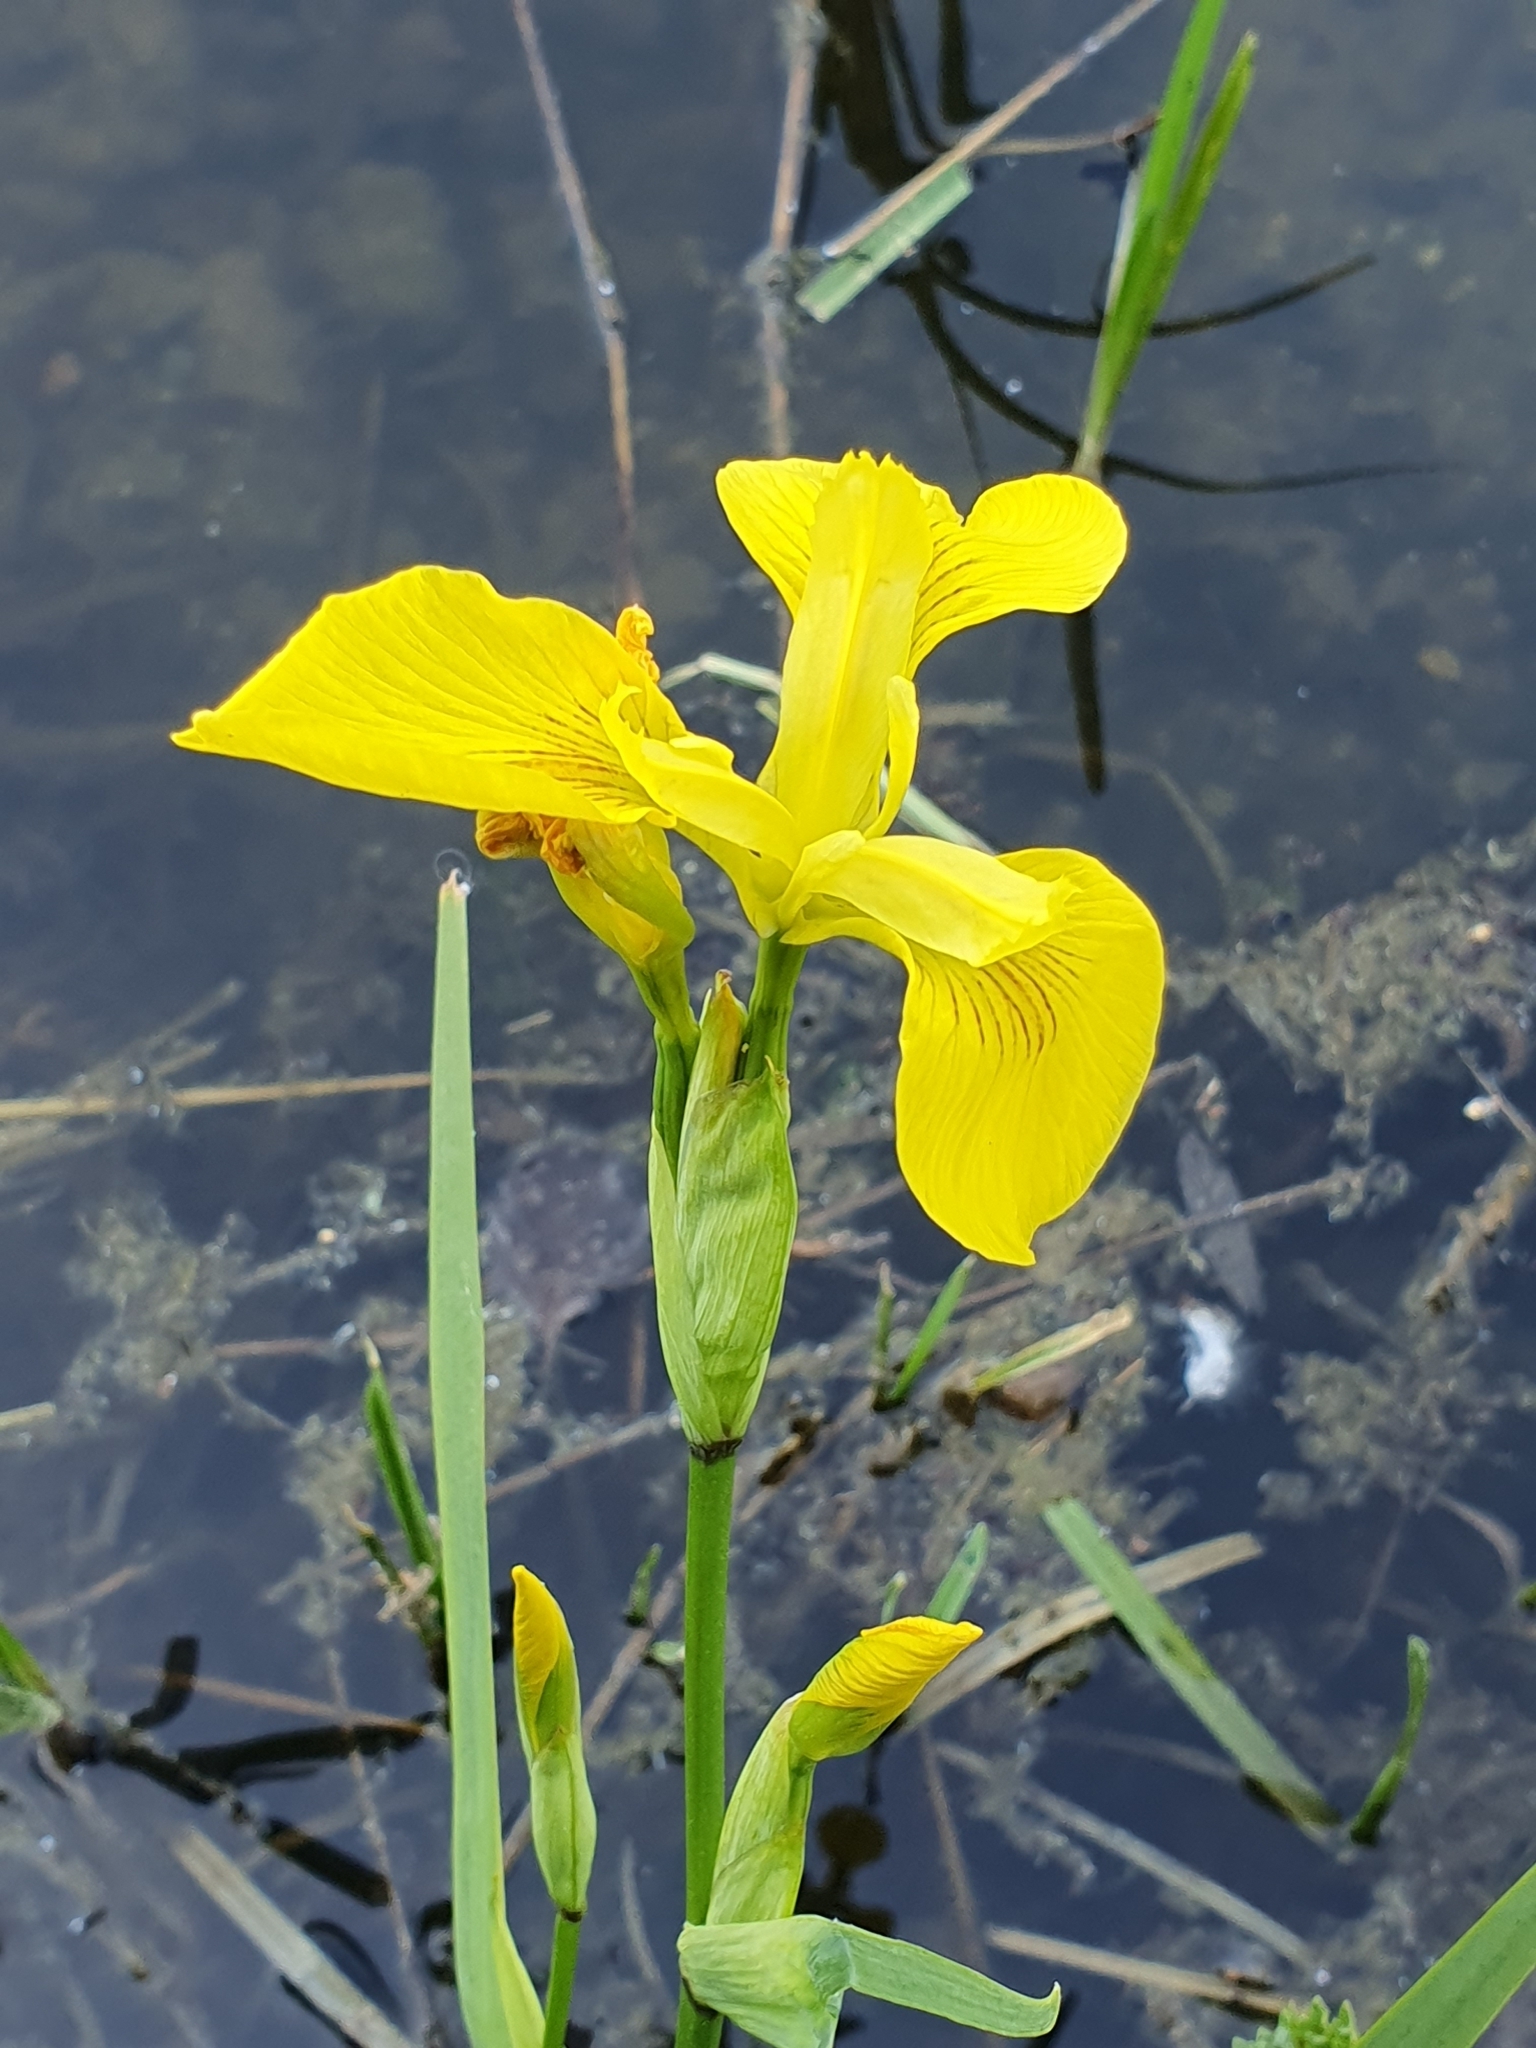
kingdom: Plantae
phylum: Tracheophyta
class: Liliopsida
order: Asparagales
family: Iridaceae
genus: Iris
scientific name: Iris pseudacorus
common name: Yellow flag
